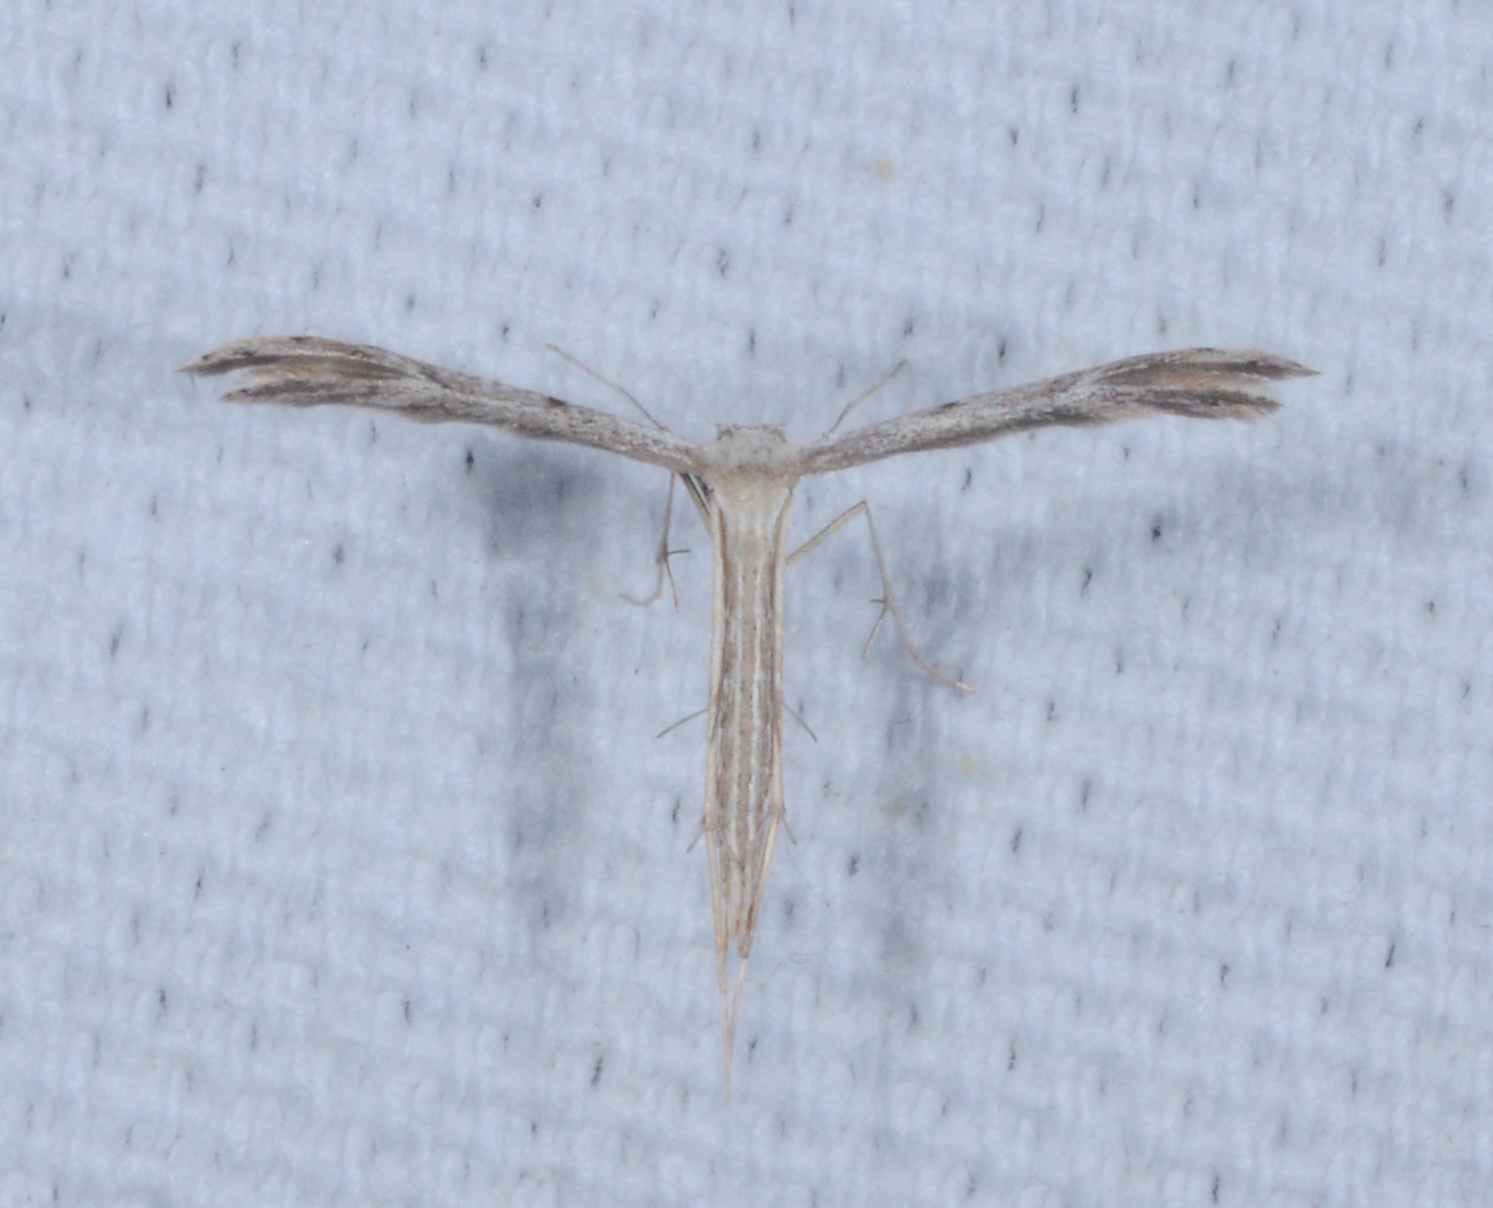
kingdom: Animalia
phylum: Arthropoda
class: Insecta
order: Lepidoptera
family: Pterophoridae
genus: Pselnophorus
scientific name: Pselnophorus belfragei
